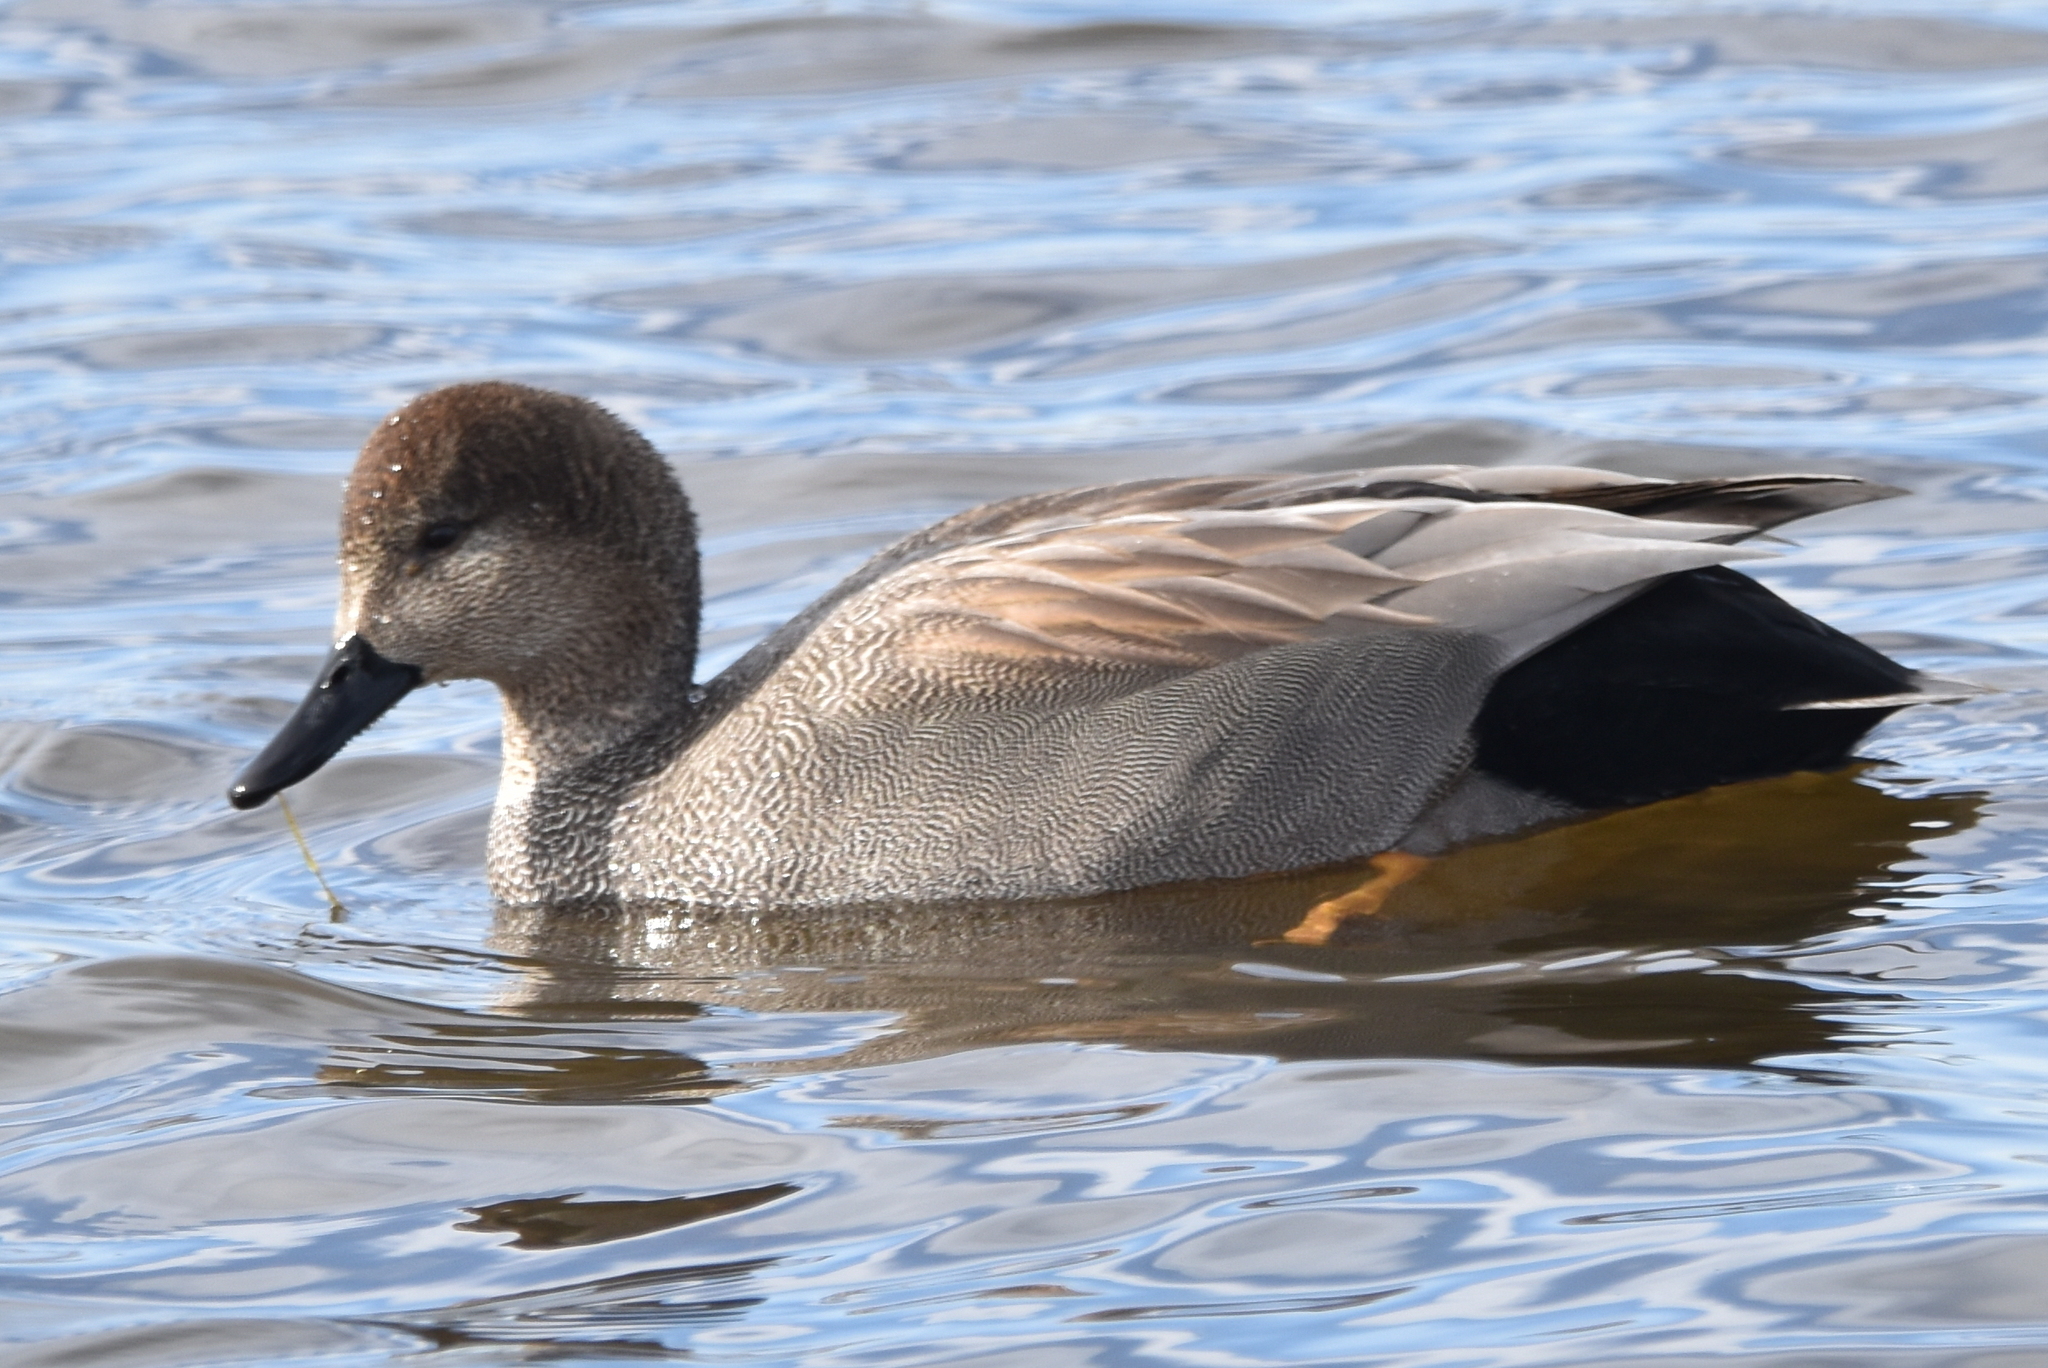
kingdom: Animalia
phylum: Chordata
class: Aves
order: Anseriformes
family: Anatidae
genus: Mareca
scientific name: Mareca strepera
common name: Gadwall
